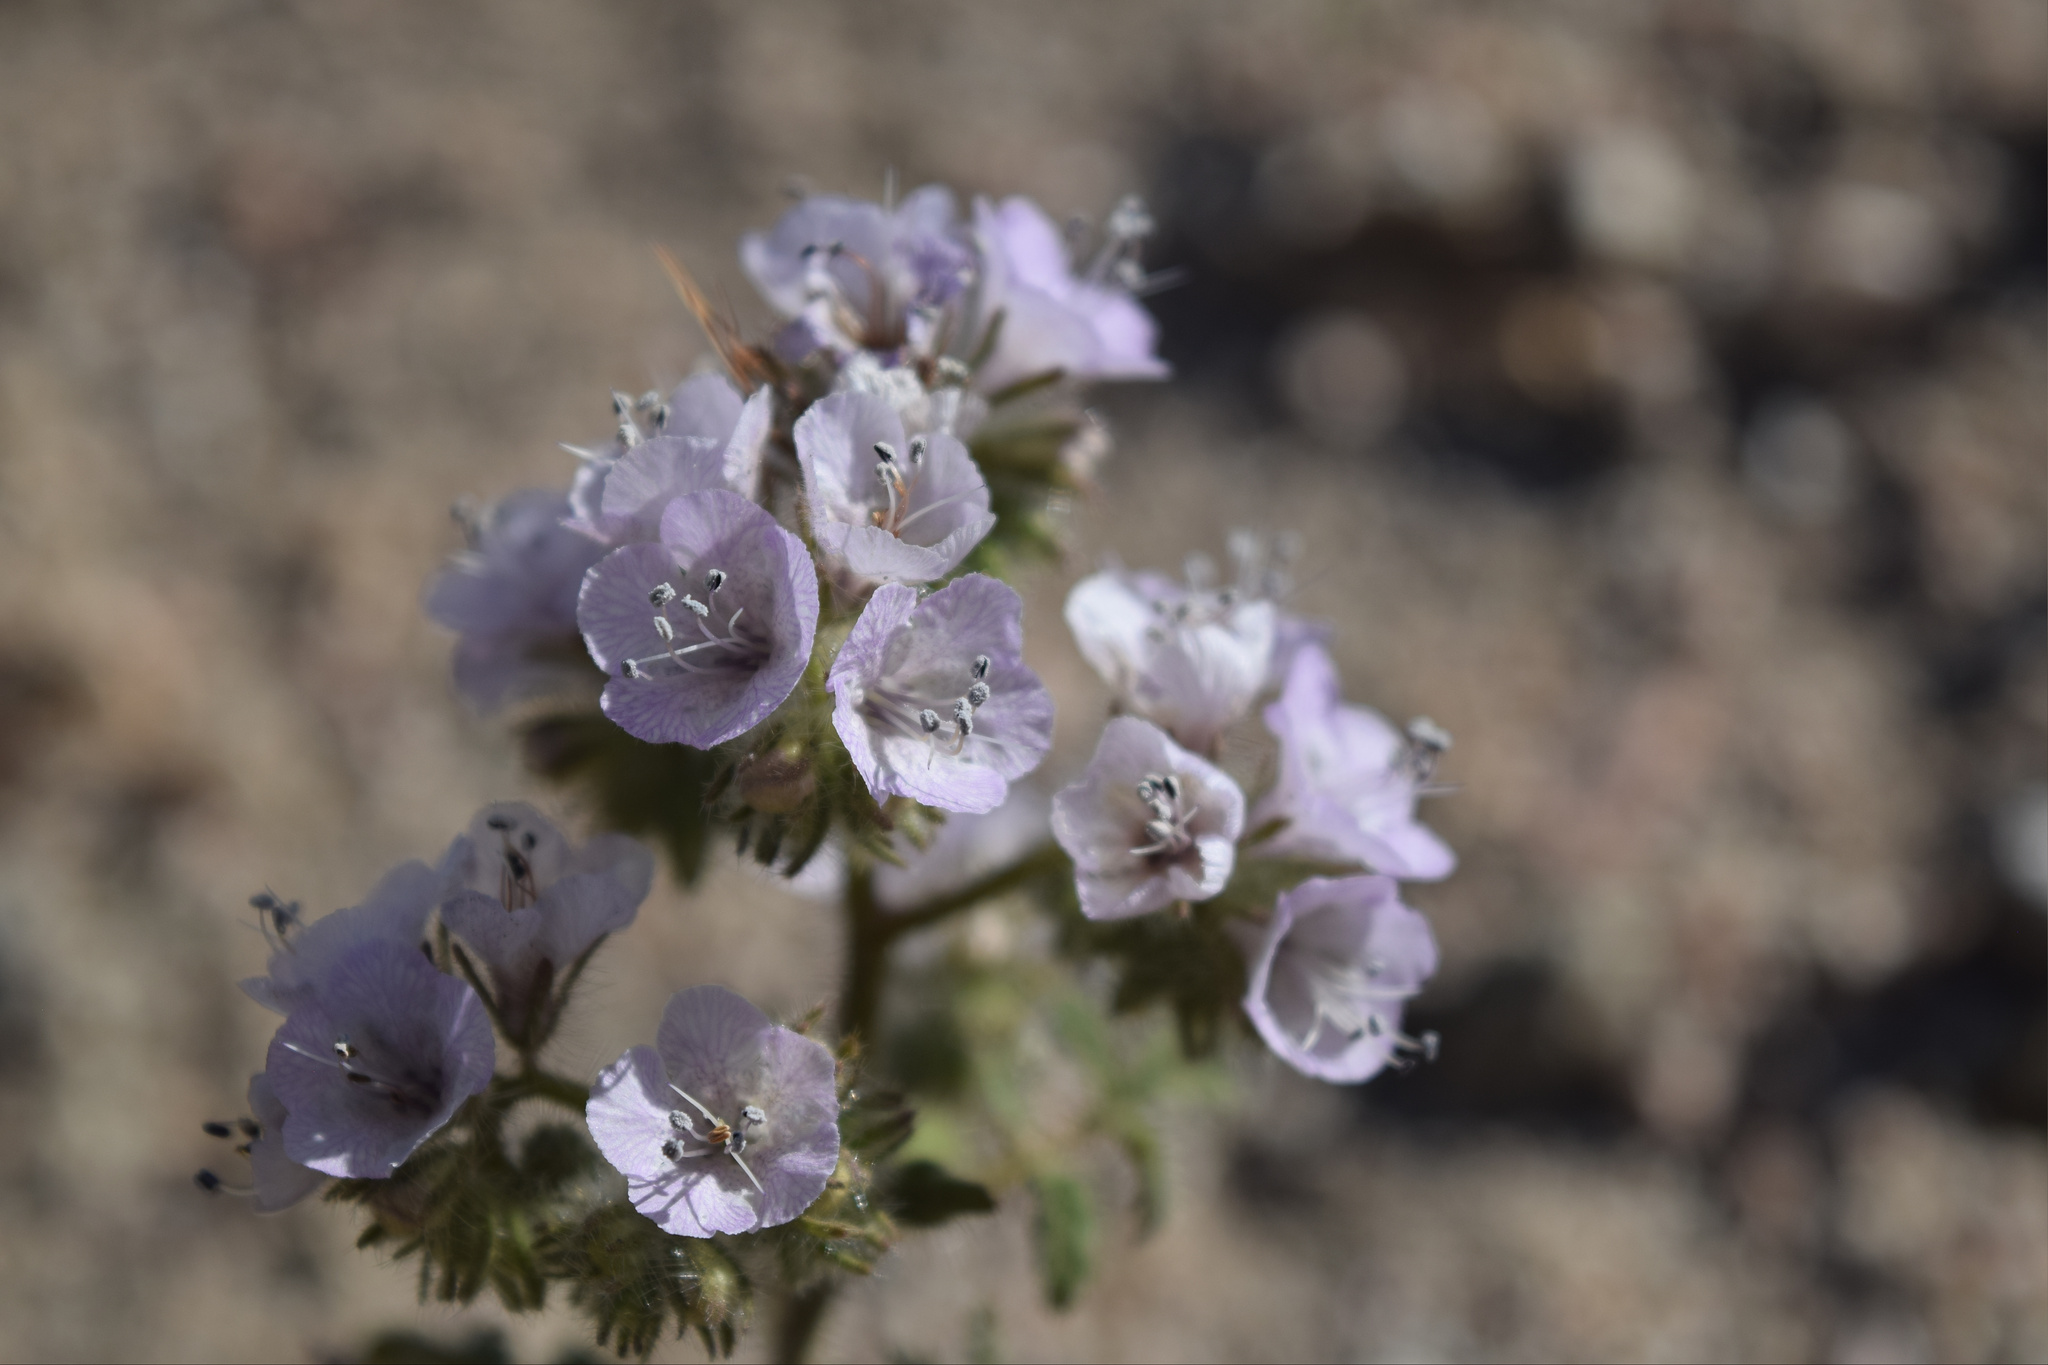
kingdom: Plantae
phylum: Tracheophyta
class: Magnoliopsida
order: Boraginales
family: Hydrophyllaceae
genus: Phacelia
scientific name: Phacelia cicutaria
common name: Caterpillar phacelia
